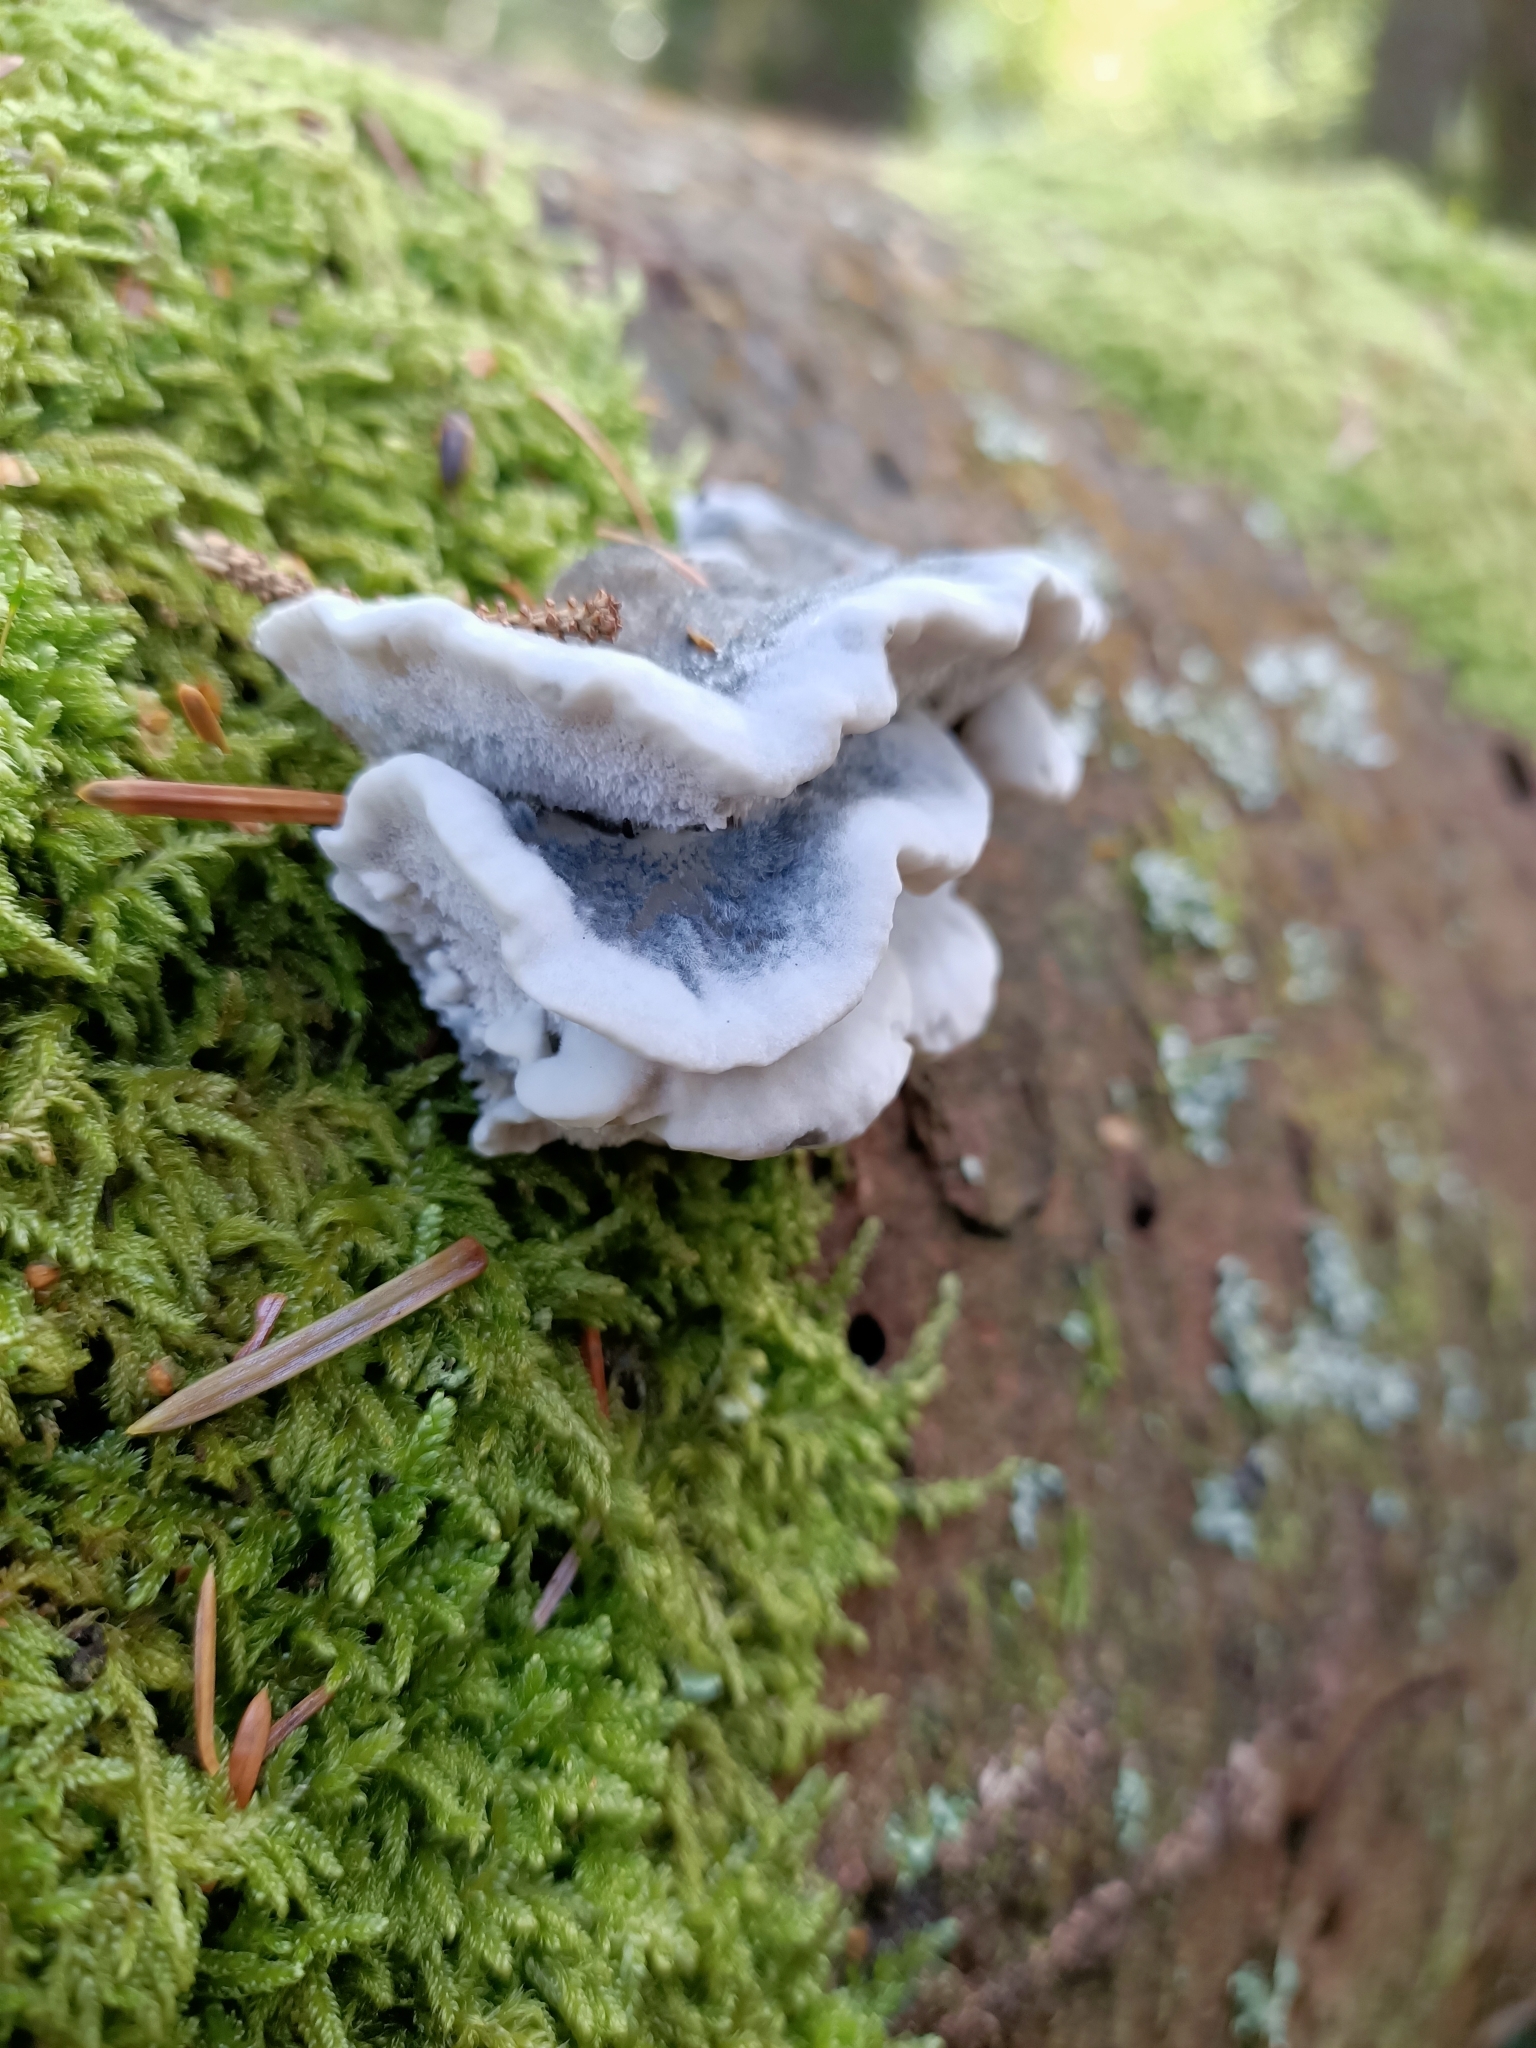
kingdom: Fungi
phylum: Basidiomycota
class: Agaricomycetes
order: Polyporales
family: Polyporaceae
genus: Cyanosporus
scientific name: Cyanosporus caesius
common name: Blue cheese polypore
